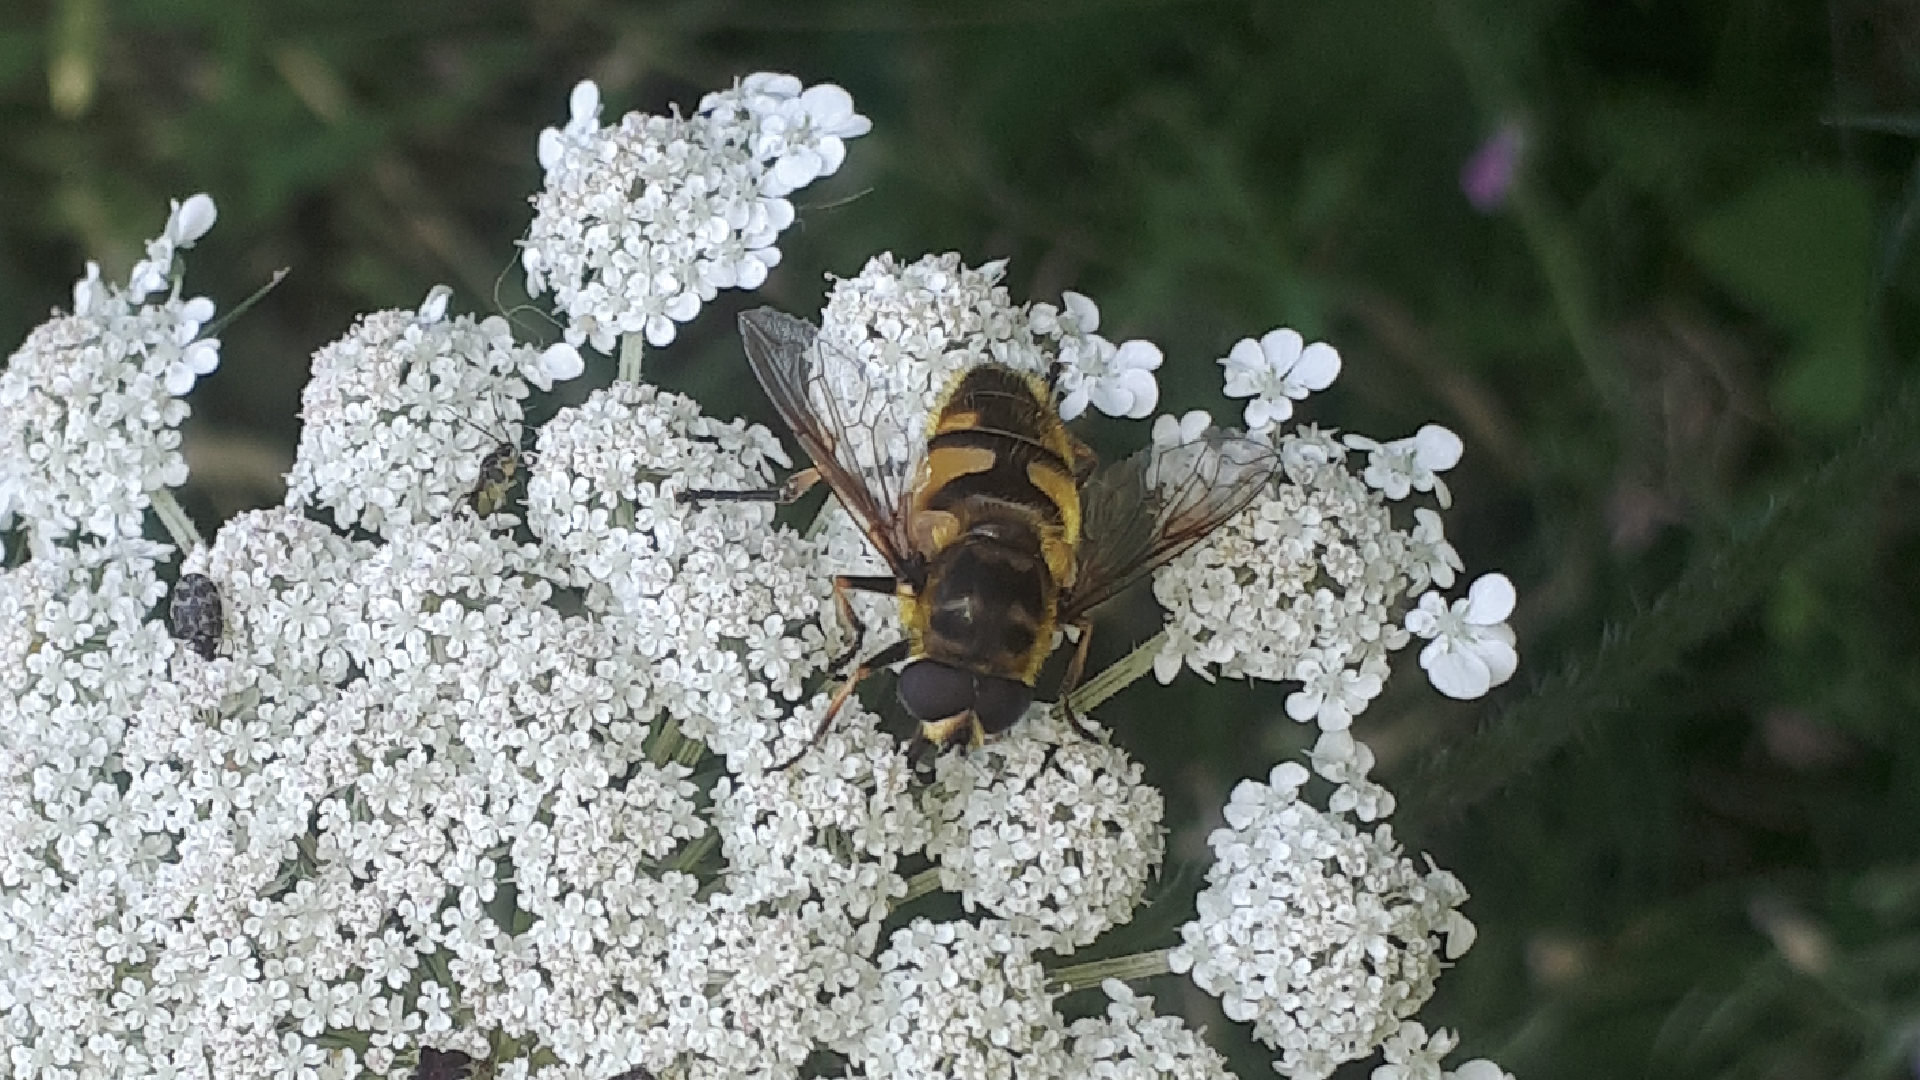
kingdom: Animalia
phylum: Arthropoda
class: Insecta
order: Diptera
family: Syrphidae
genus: Myathropa
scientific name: Myathropa florea
